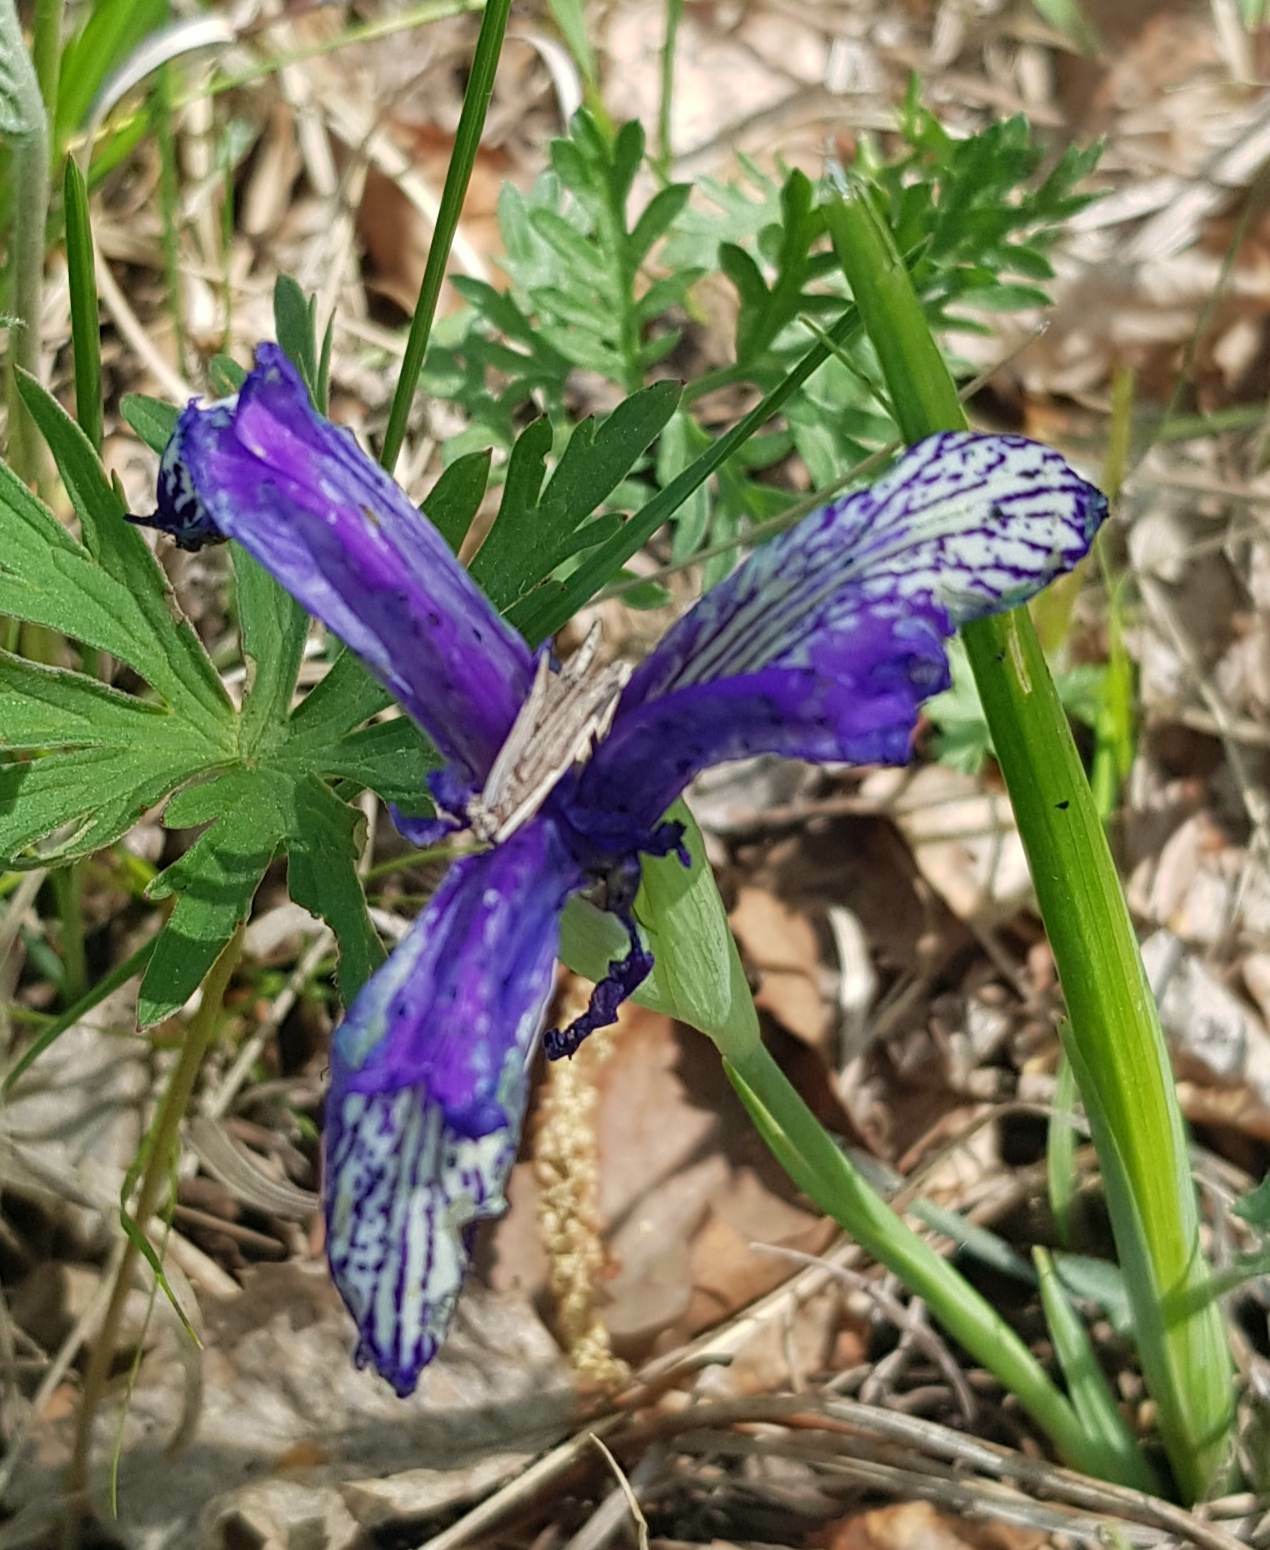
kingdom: Plantae
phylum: Tracheophyta
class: Liliopsida
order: Asparagales
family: Iridaceae
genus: Iris
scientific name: Iris ruthenica
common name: Purple-bract iris
